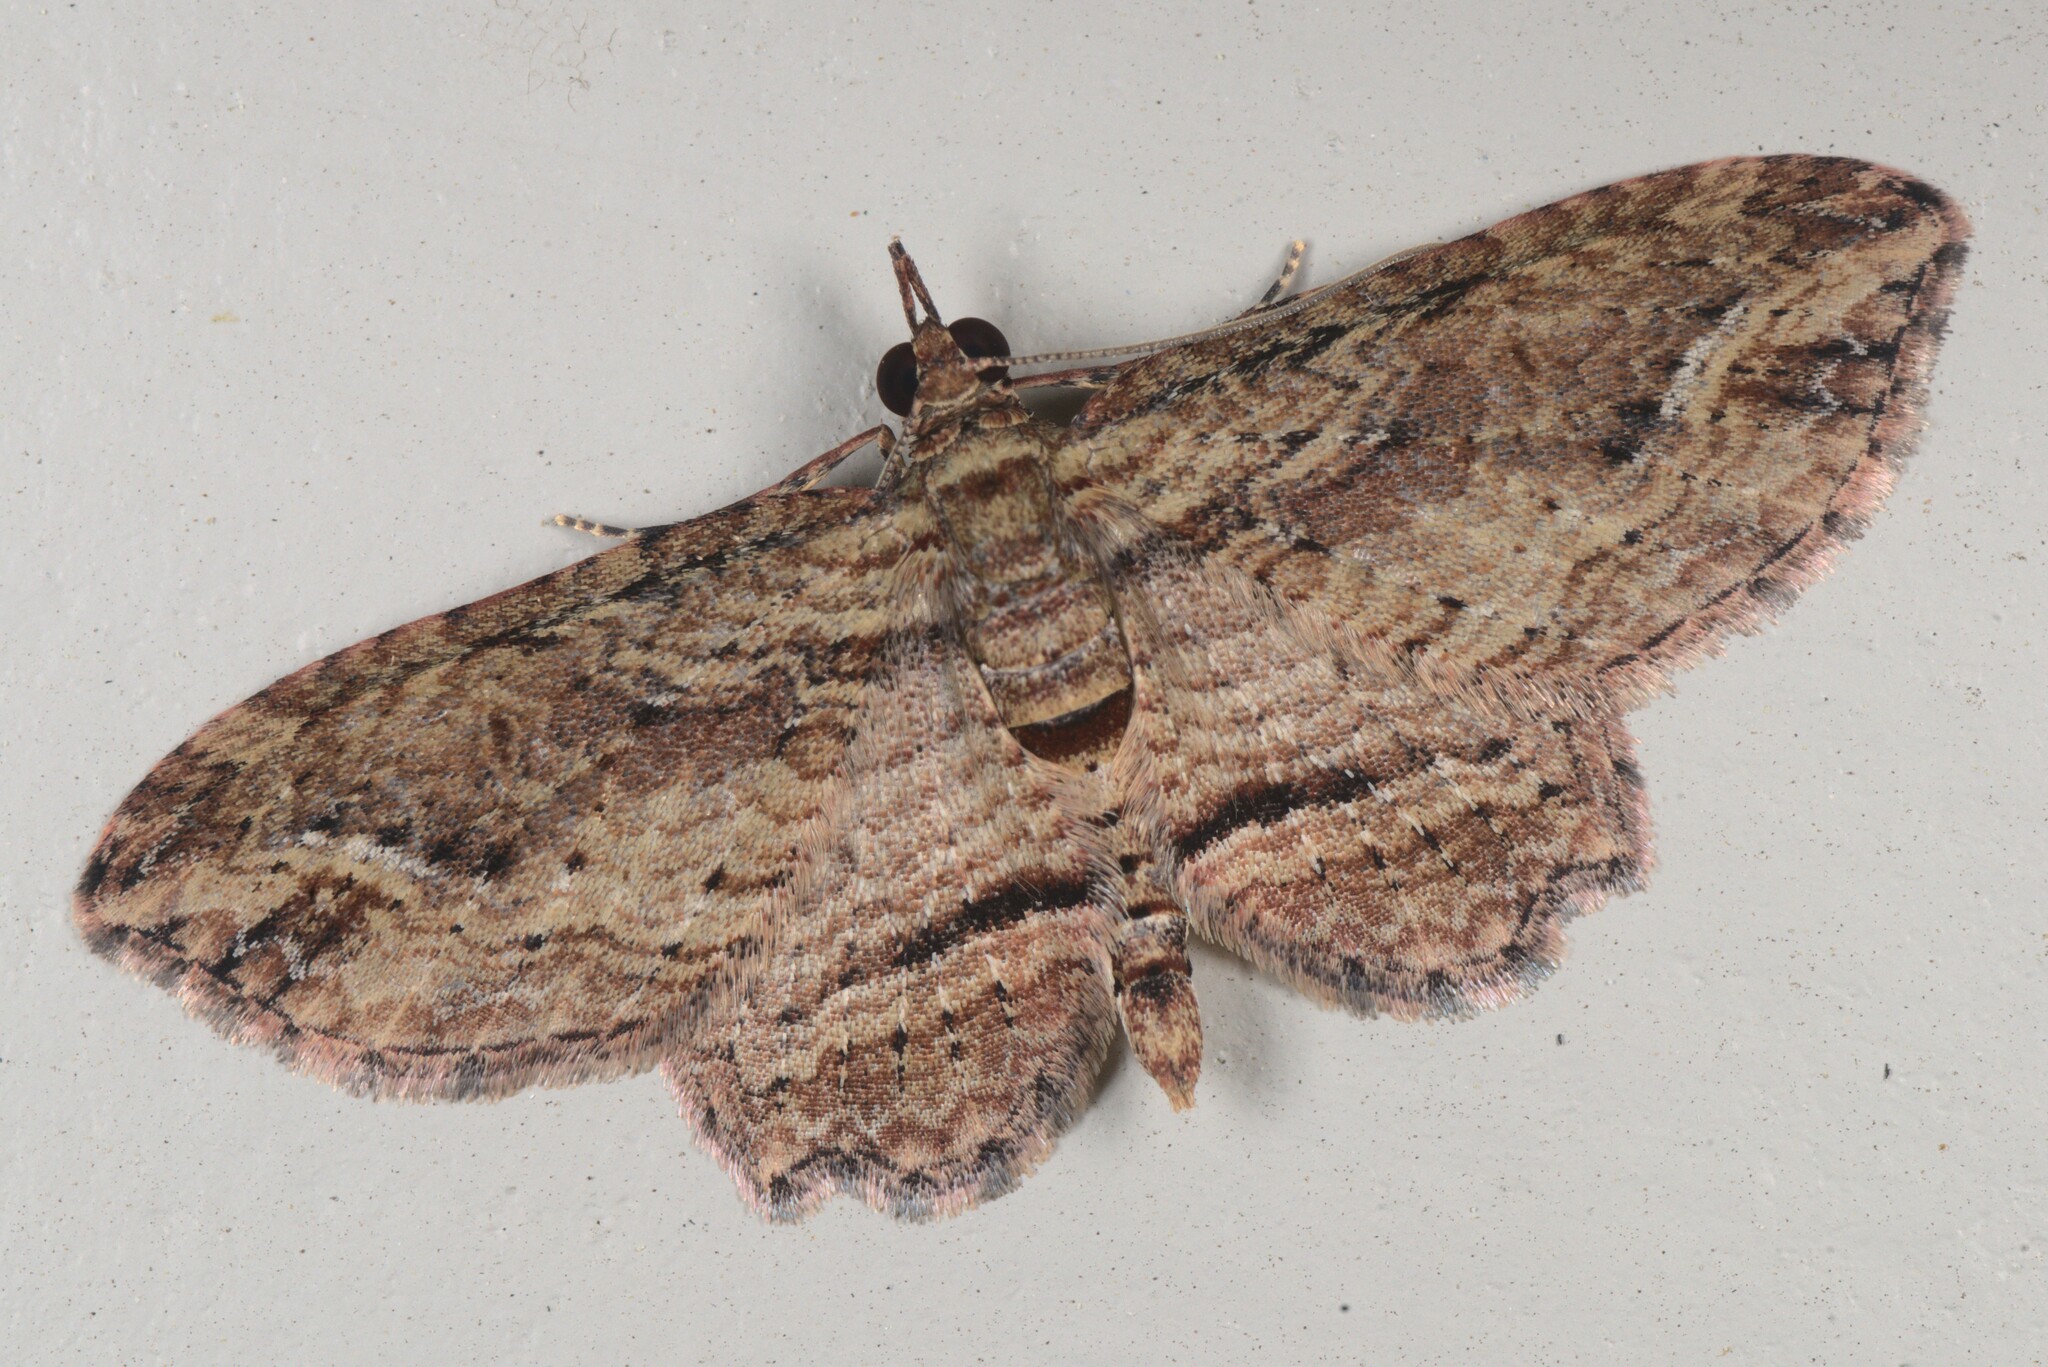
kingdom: Animalia
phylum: Arthropoda
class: Insecta
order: Lepidoptera
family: Geometridae
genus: Chloroclystis
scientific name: Chloroclystis filata
